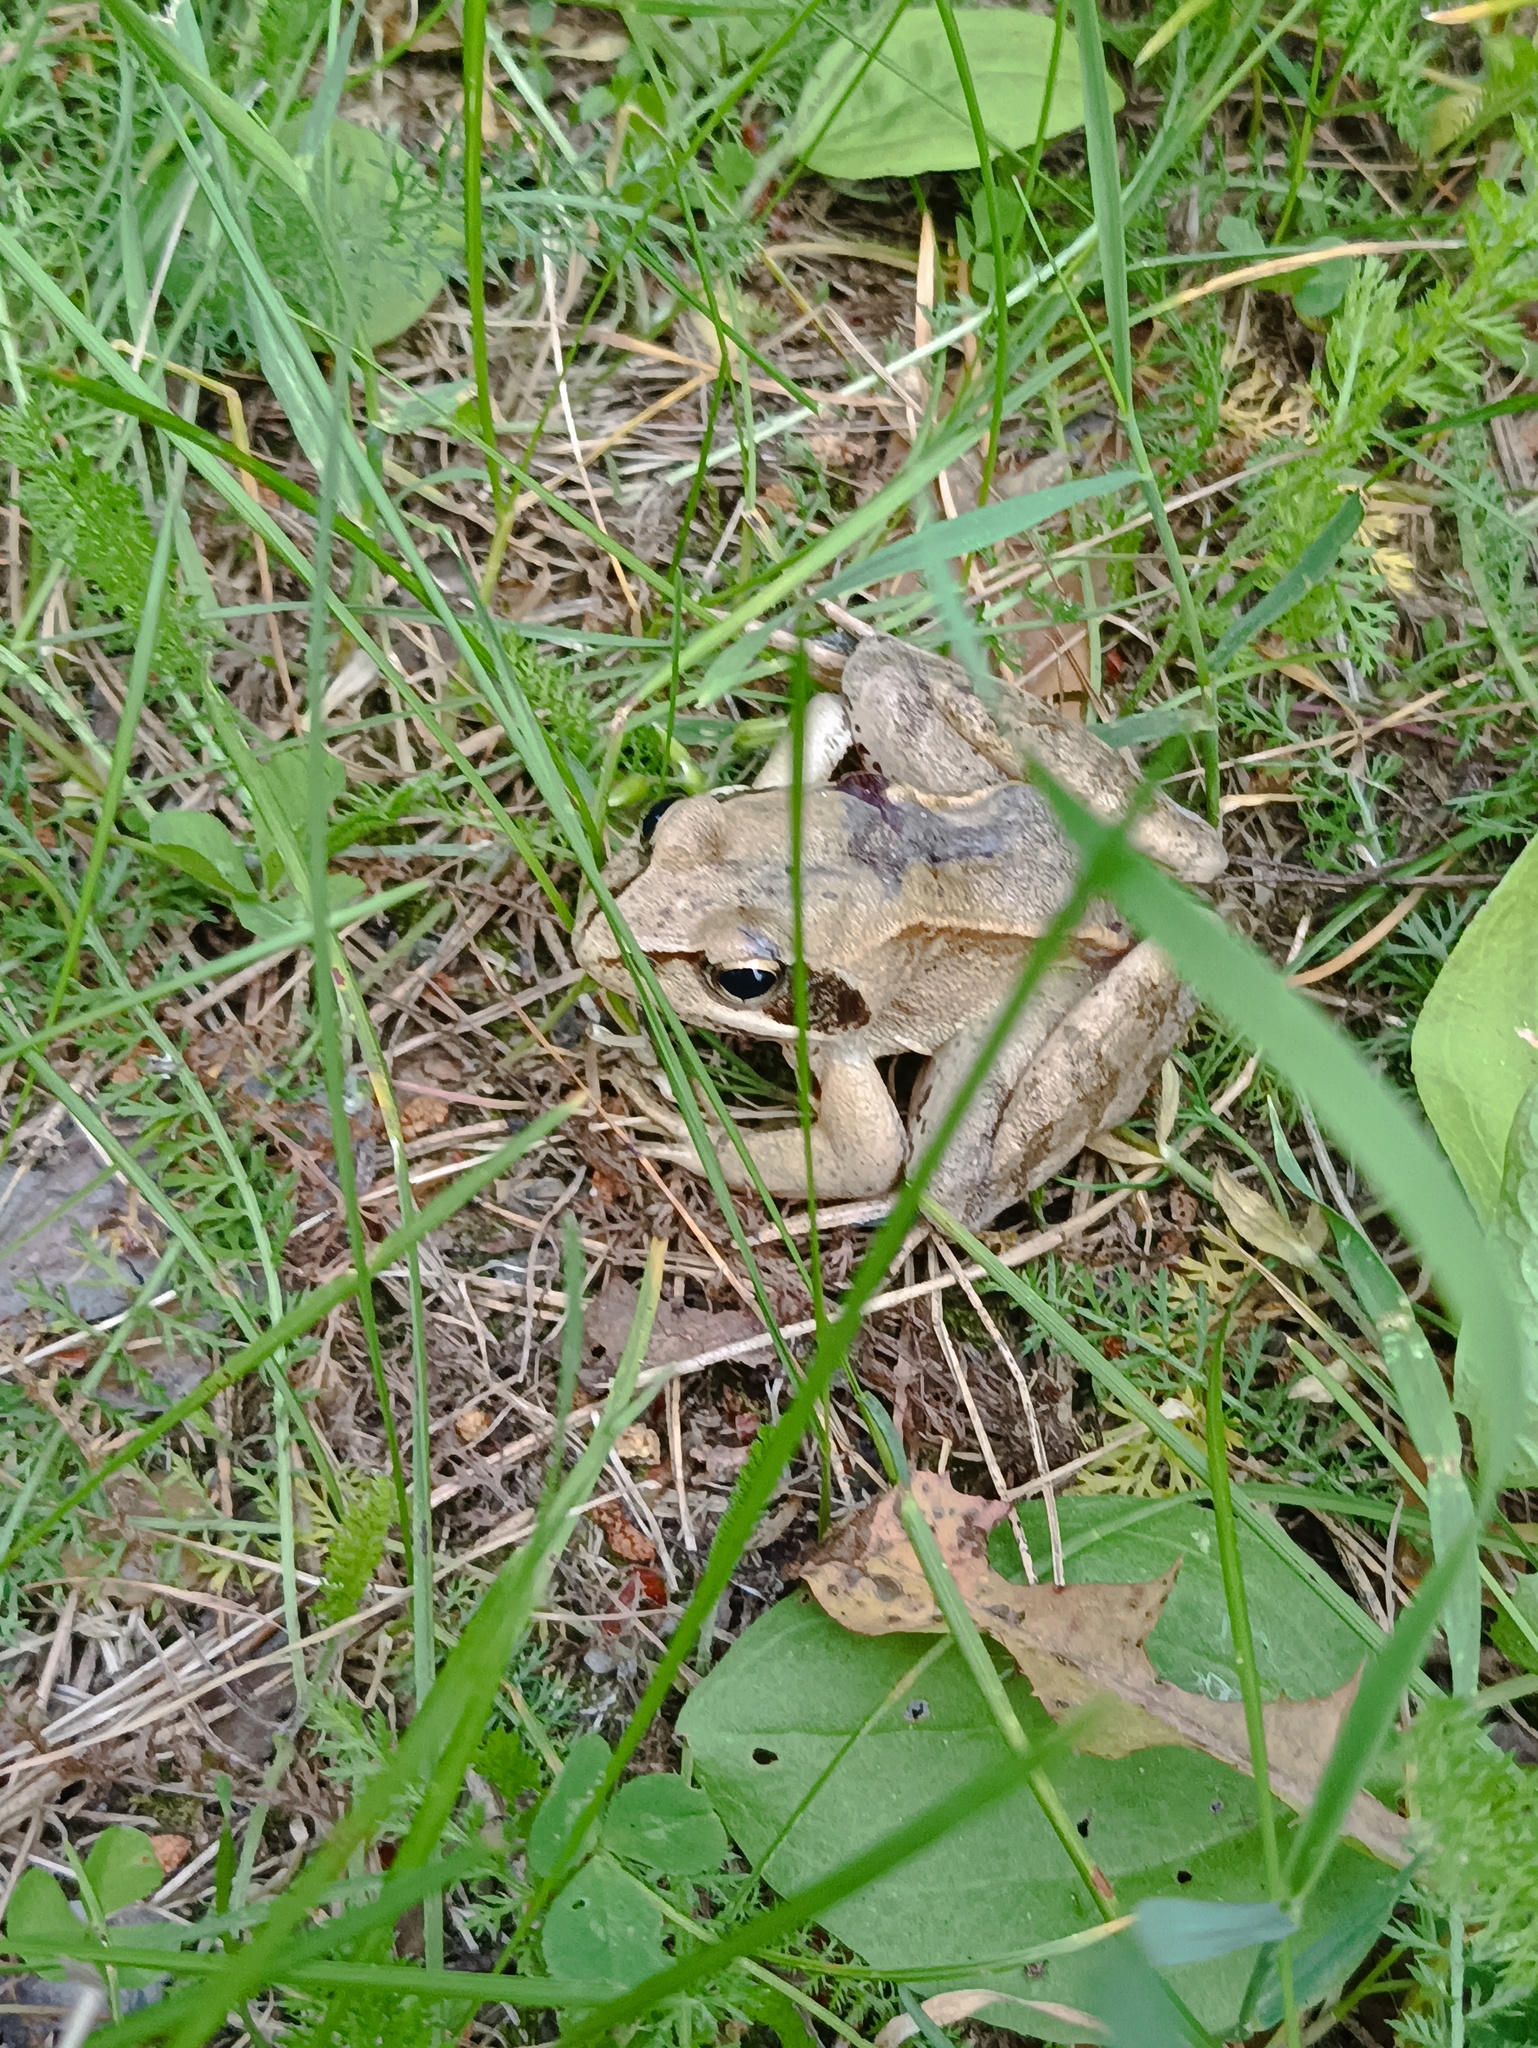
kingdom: Animalia
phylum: Chordata
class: Amphibia
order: Anura
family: Ranidae
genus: Rana
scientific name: Rana arvalis
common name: Moor frog
